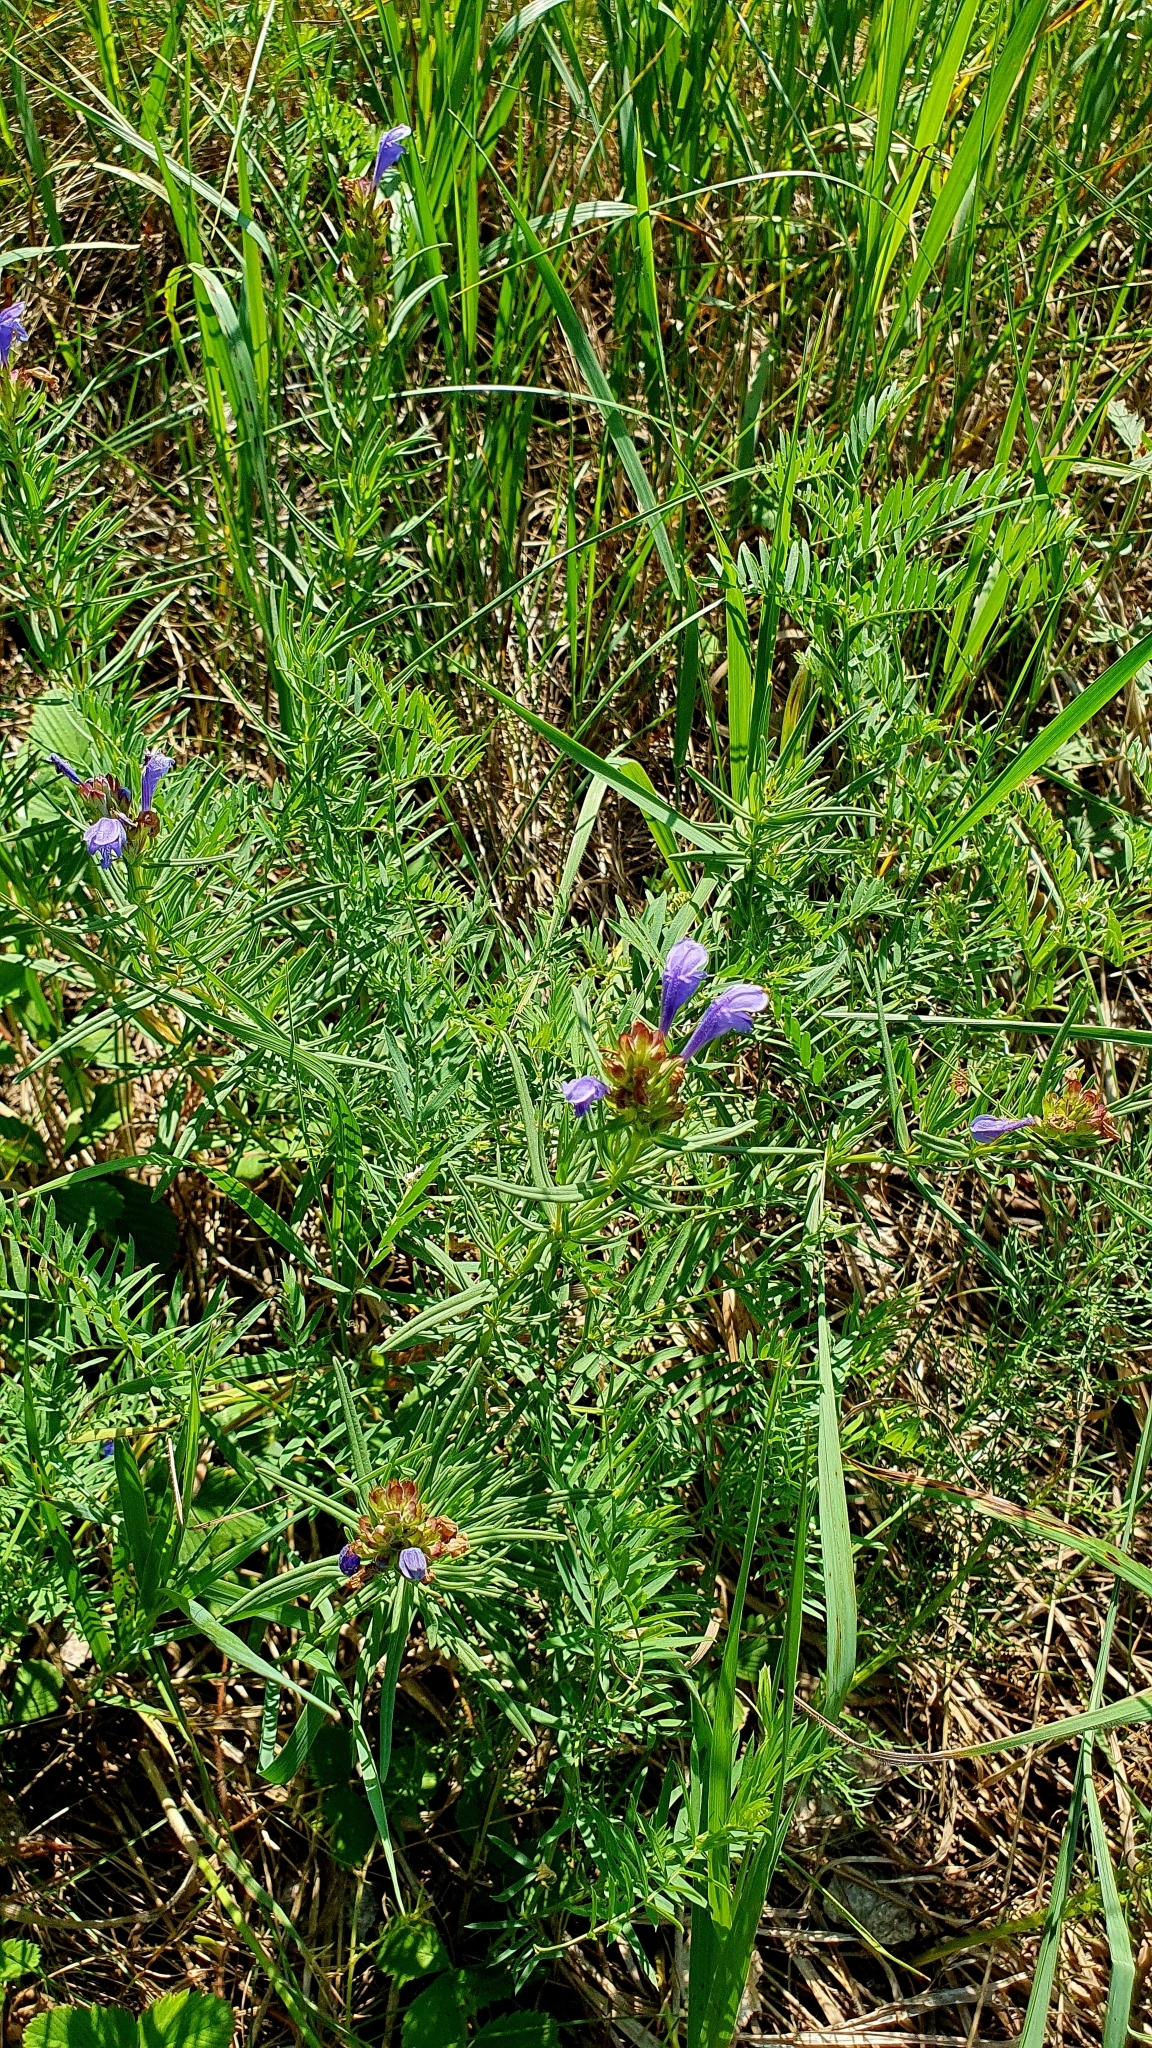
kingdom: Plantae
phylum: Tracheophyta
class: Magnoliopsida
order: Lamiales
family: Lamiaceae
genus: Dracocephalum
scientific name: Dracocephalum ruyschiana
